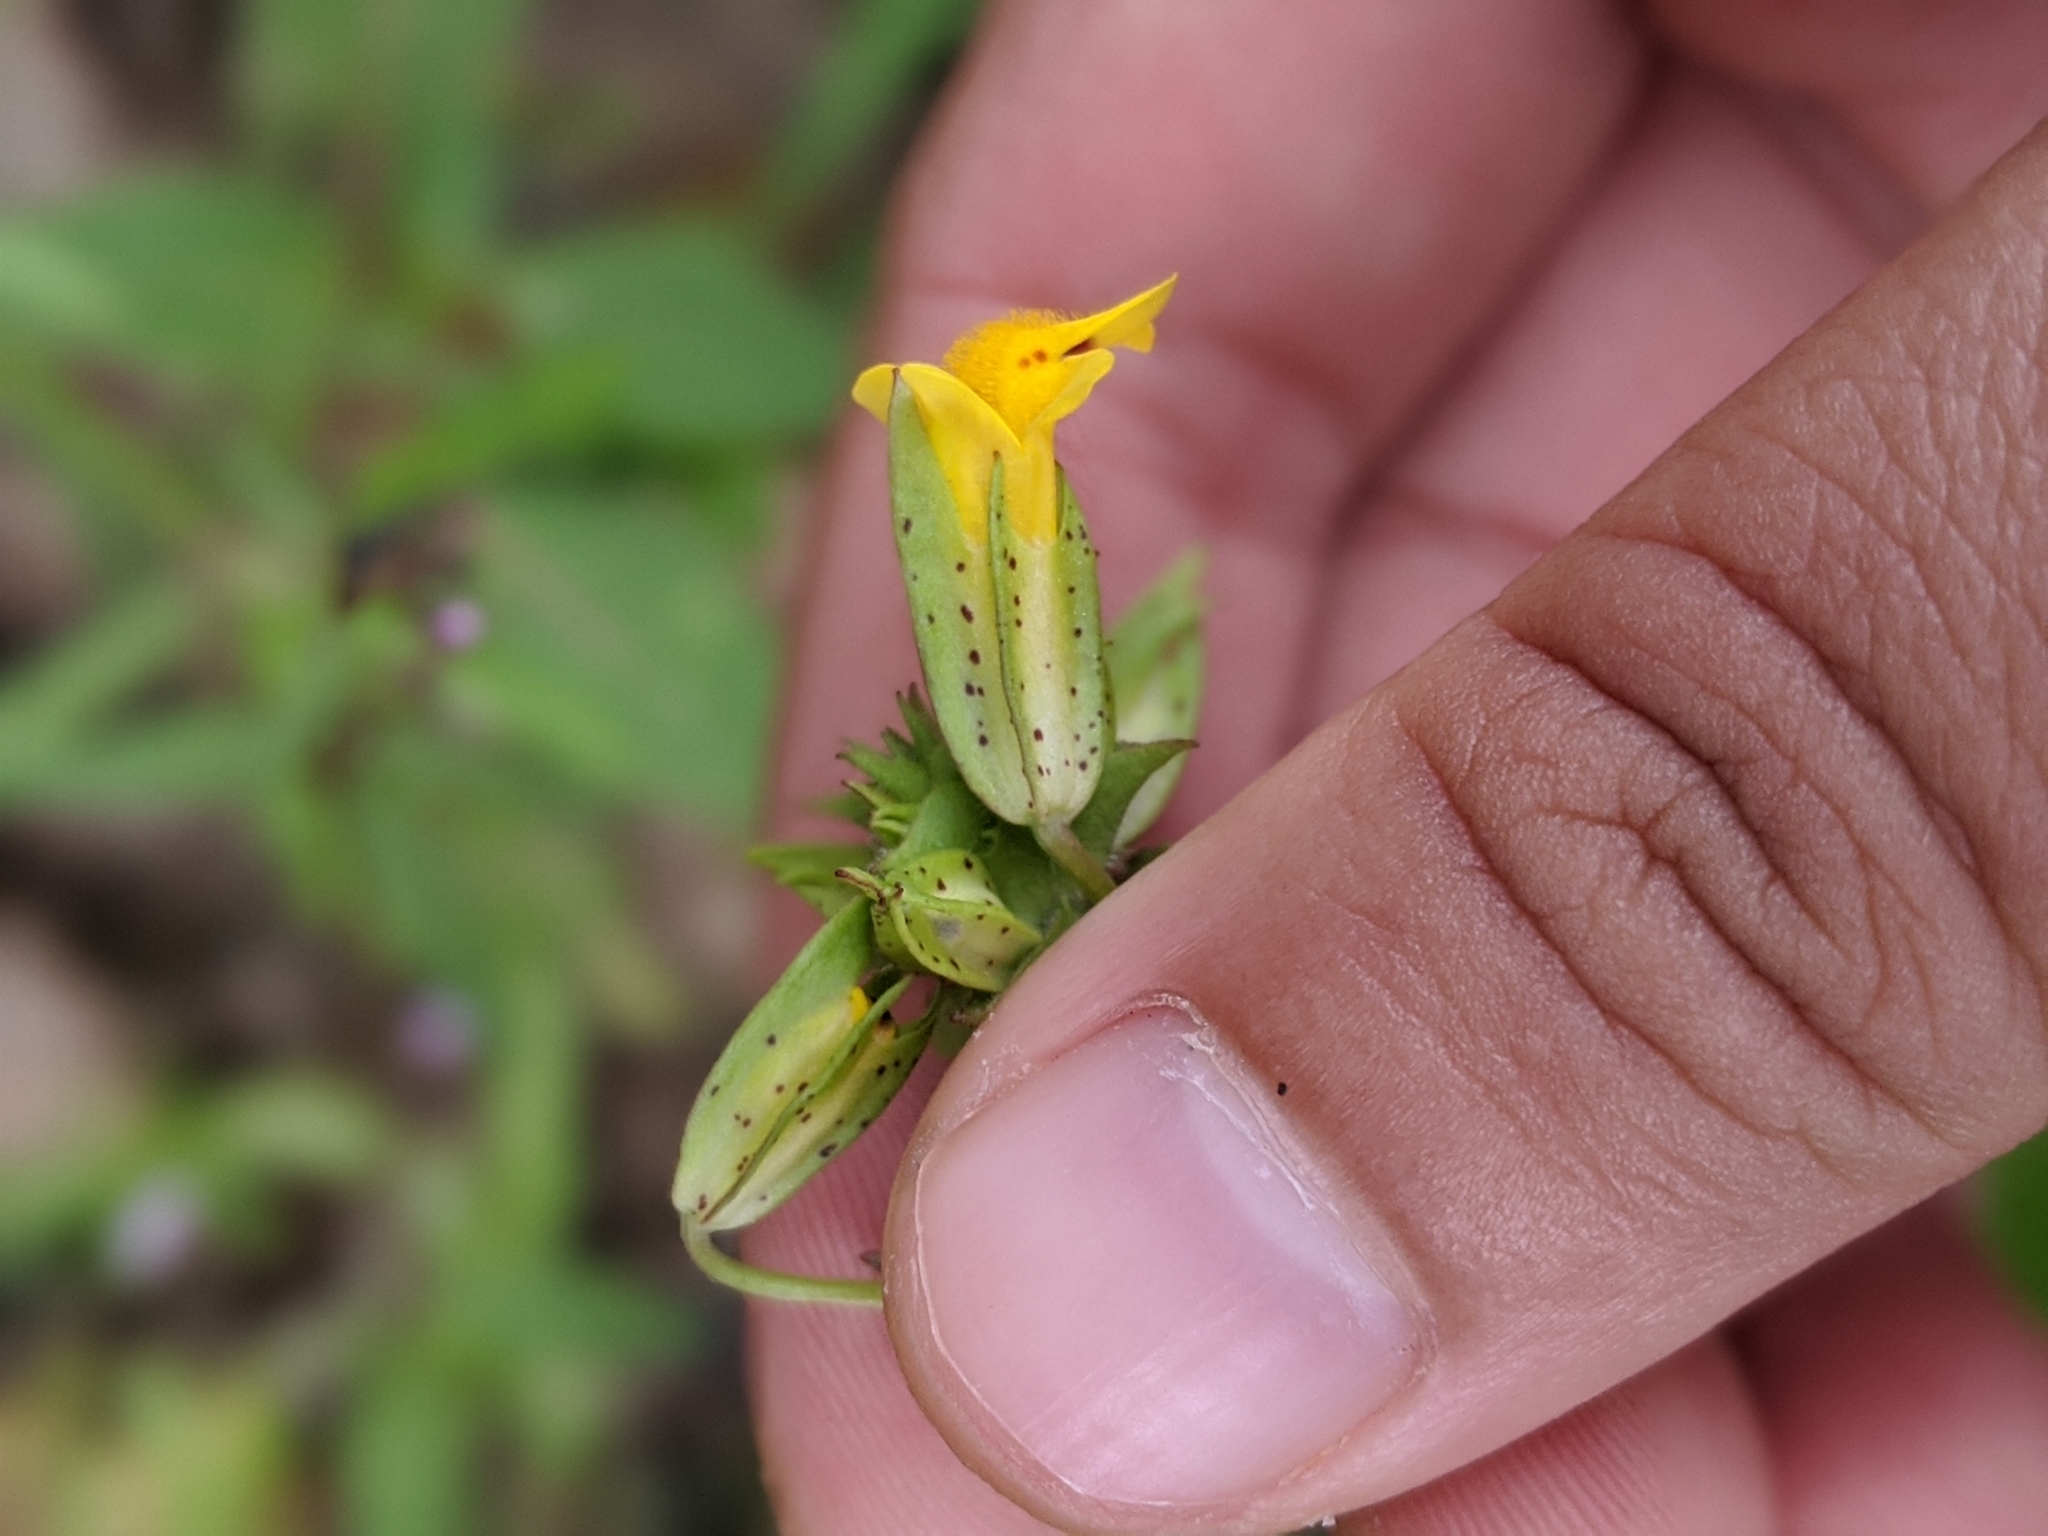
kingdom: Plantae
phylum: Tracheophyta
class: Magnoliopsida
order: Lamiales
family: Phrymaceae
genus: Erythranthe
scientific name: Erythranthe nasuta
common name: Sooke monkeyflower
